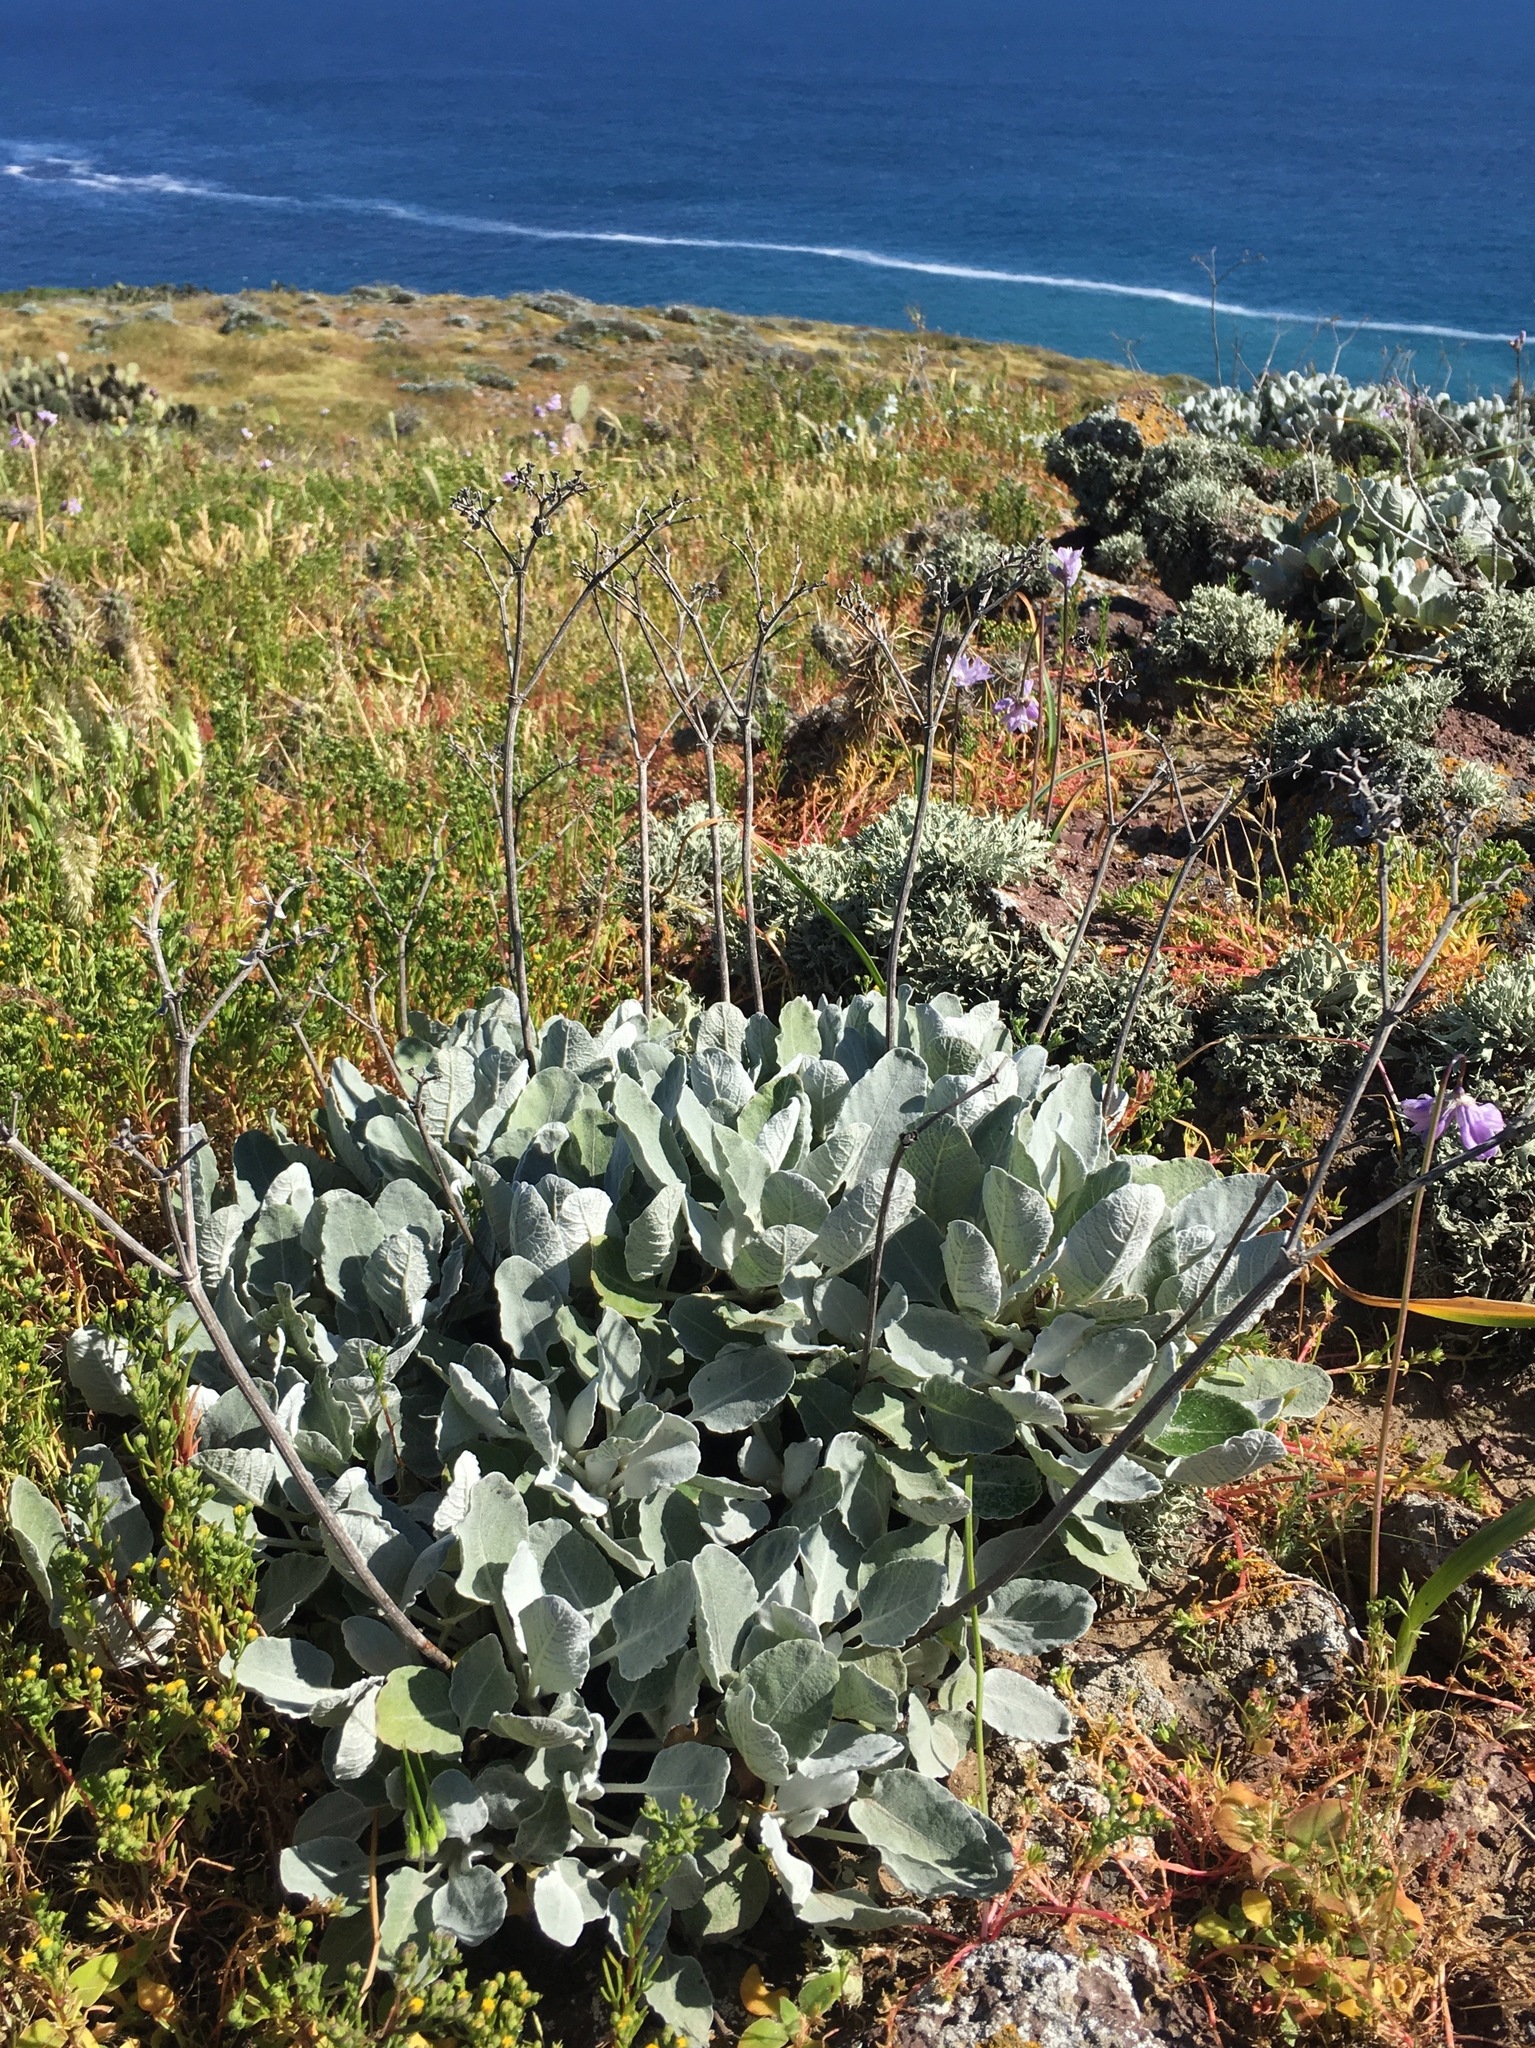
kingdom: Plantae
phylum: Tracheophyta
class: Magnoliopsida
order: Caryophyllales
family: Polygonaceae
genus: Eriogonum
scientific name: Eriogonum giganteum
